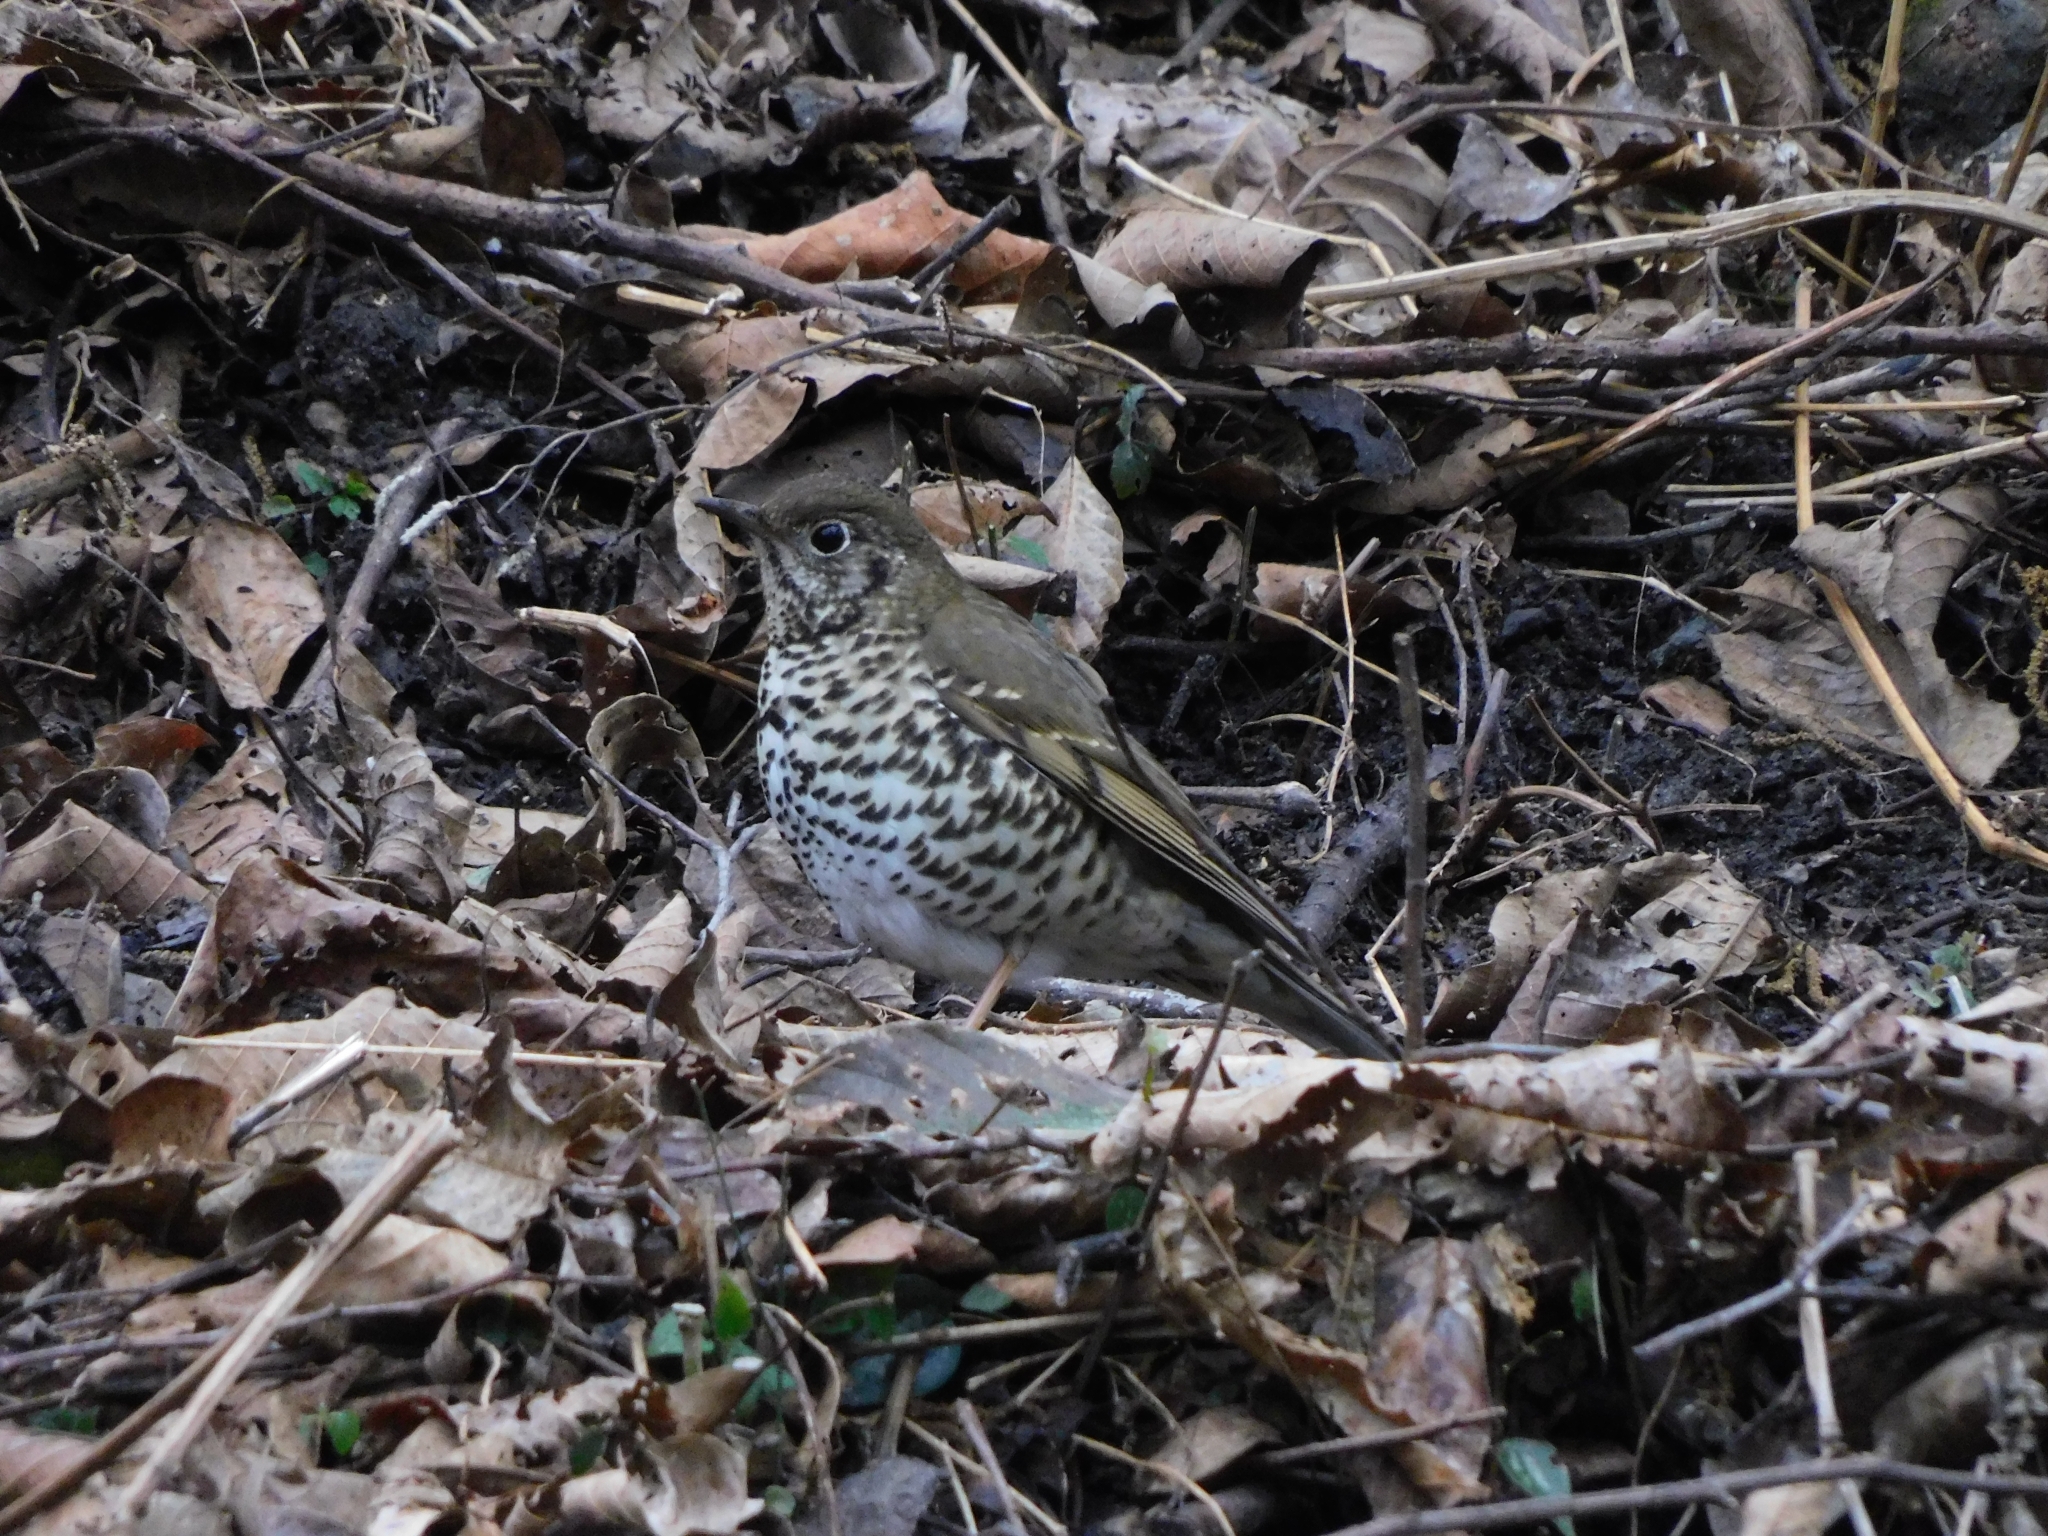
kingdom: Animalia
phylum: Chordata
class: Aves
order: Passeriformes
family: Turdidae
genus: Zoothera
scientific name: Zoothera mollissima
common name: Plain-backed thrush
